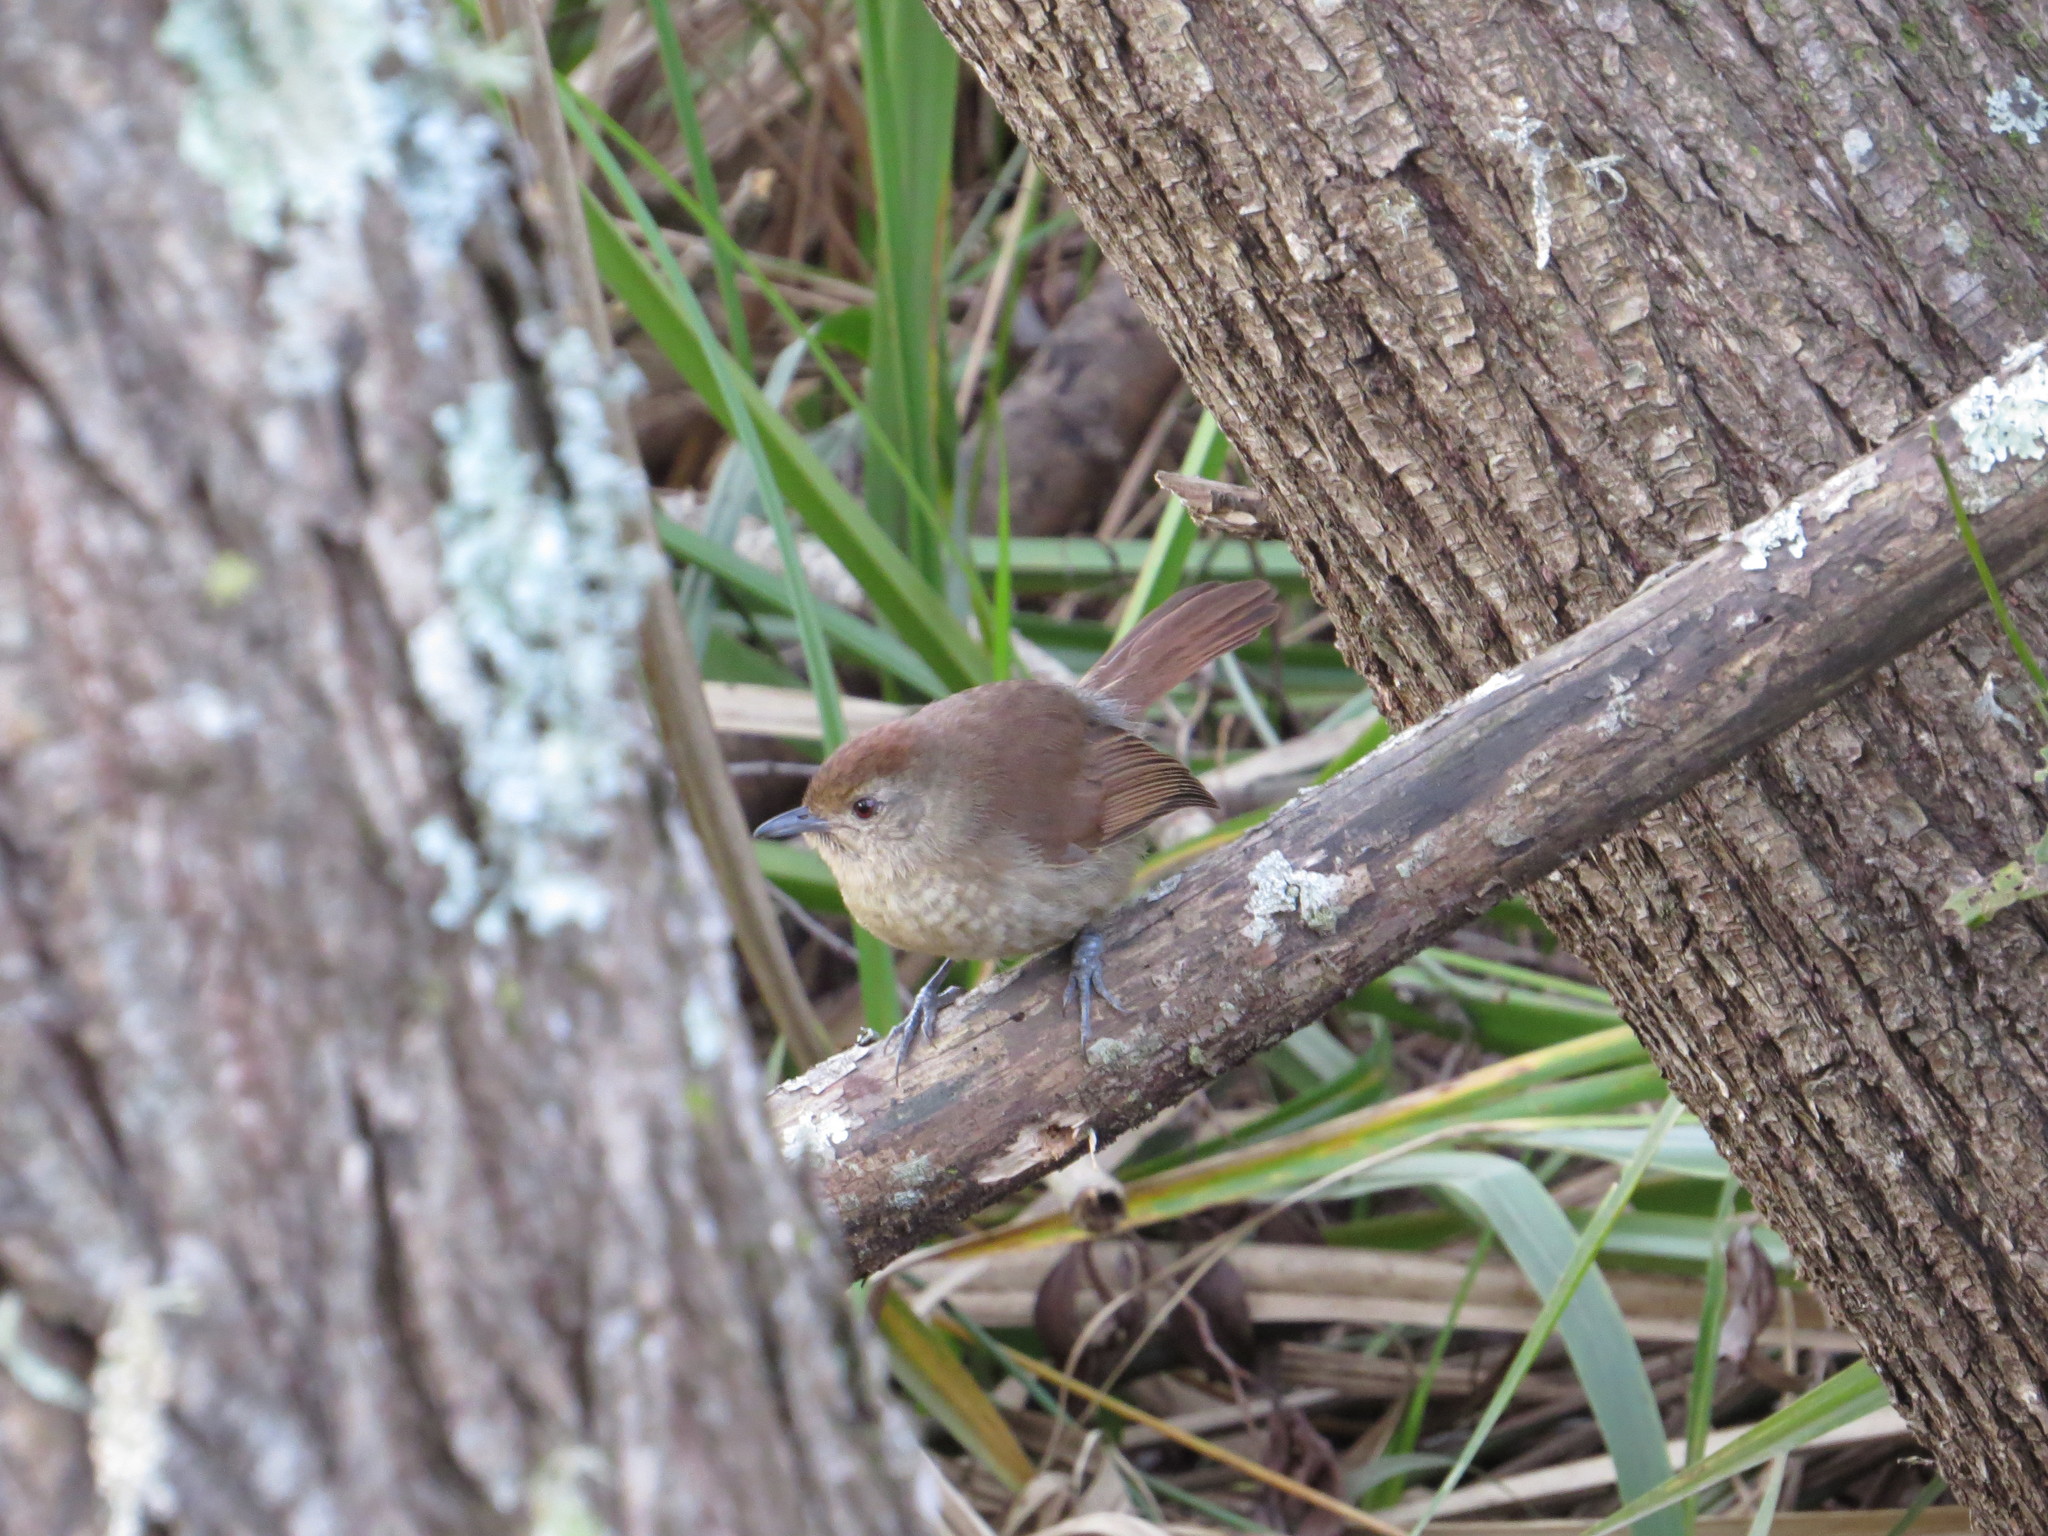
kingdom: Animalia
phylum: Chordata
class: Aves
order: Passeriformes
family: Thamnophilidae
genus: Thamnophilus
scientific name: Thamnophilus ruficapillus
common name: Rufous-capped antshrike
